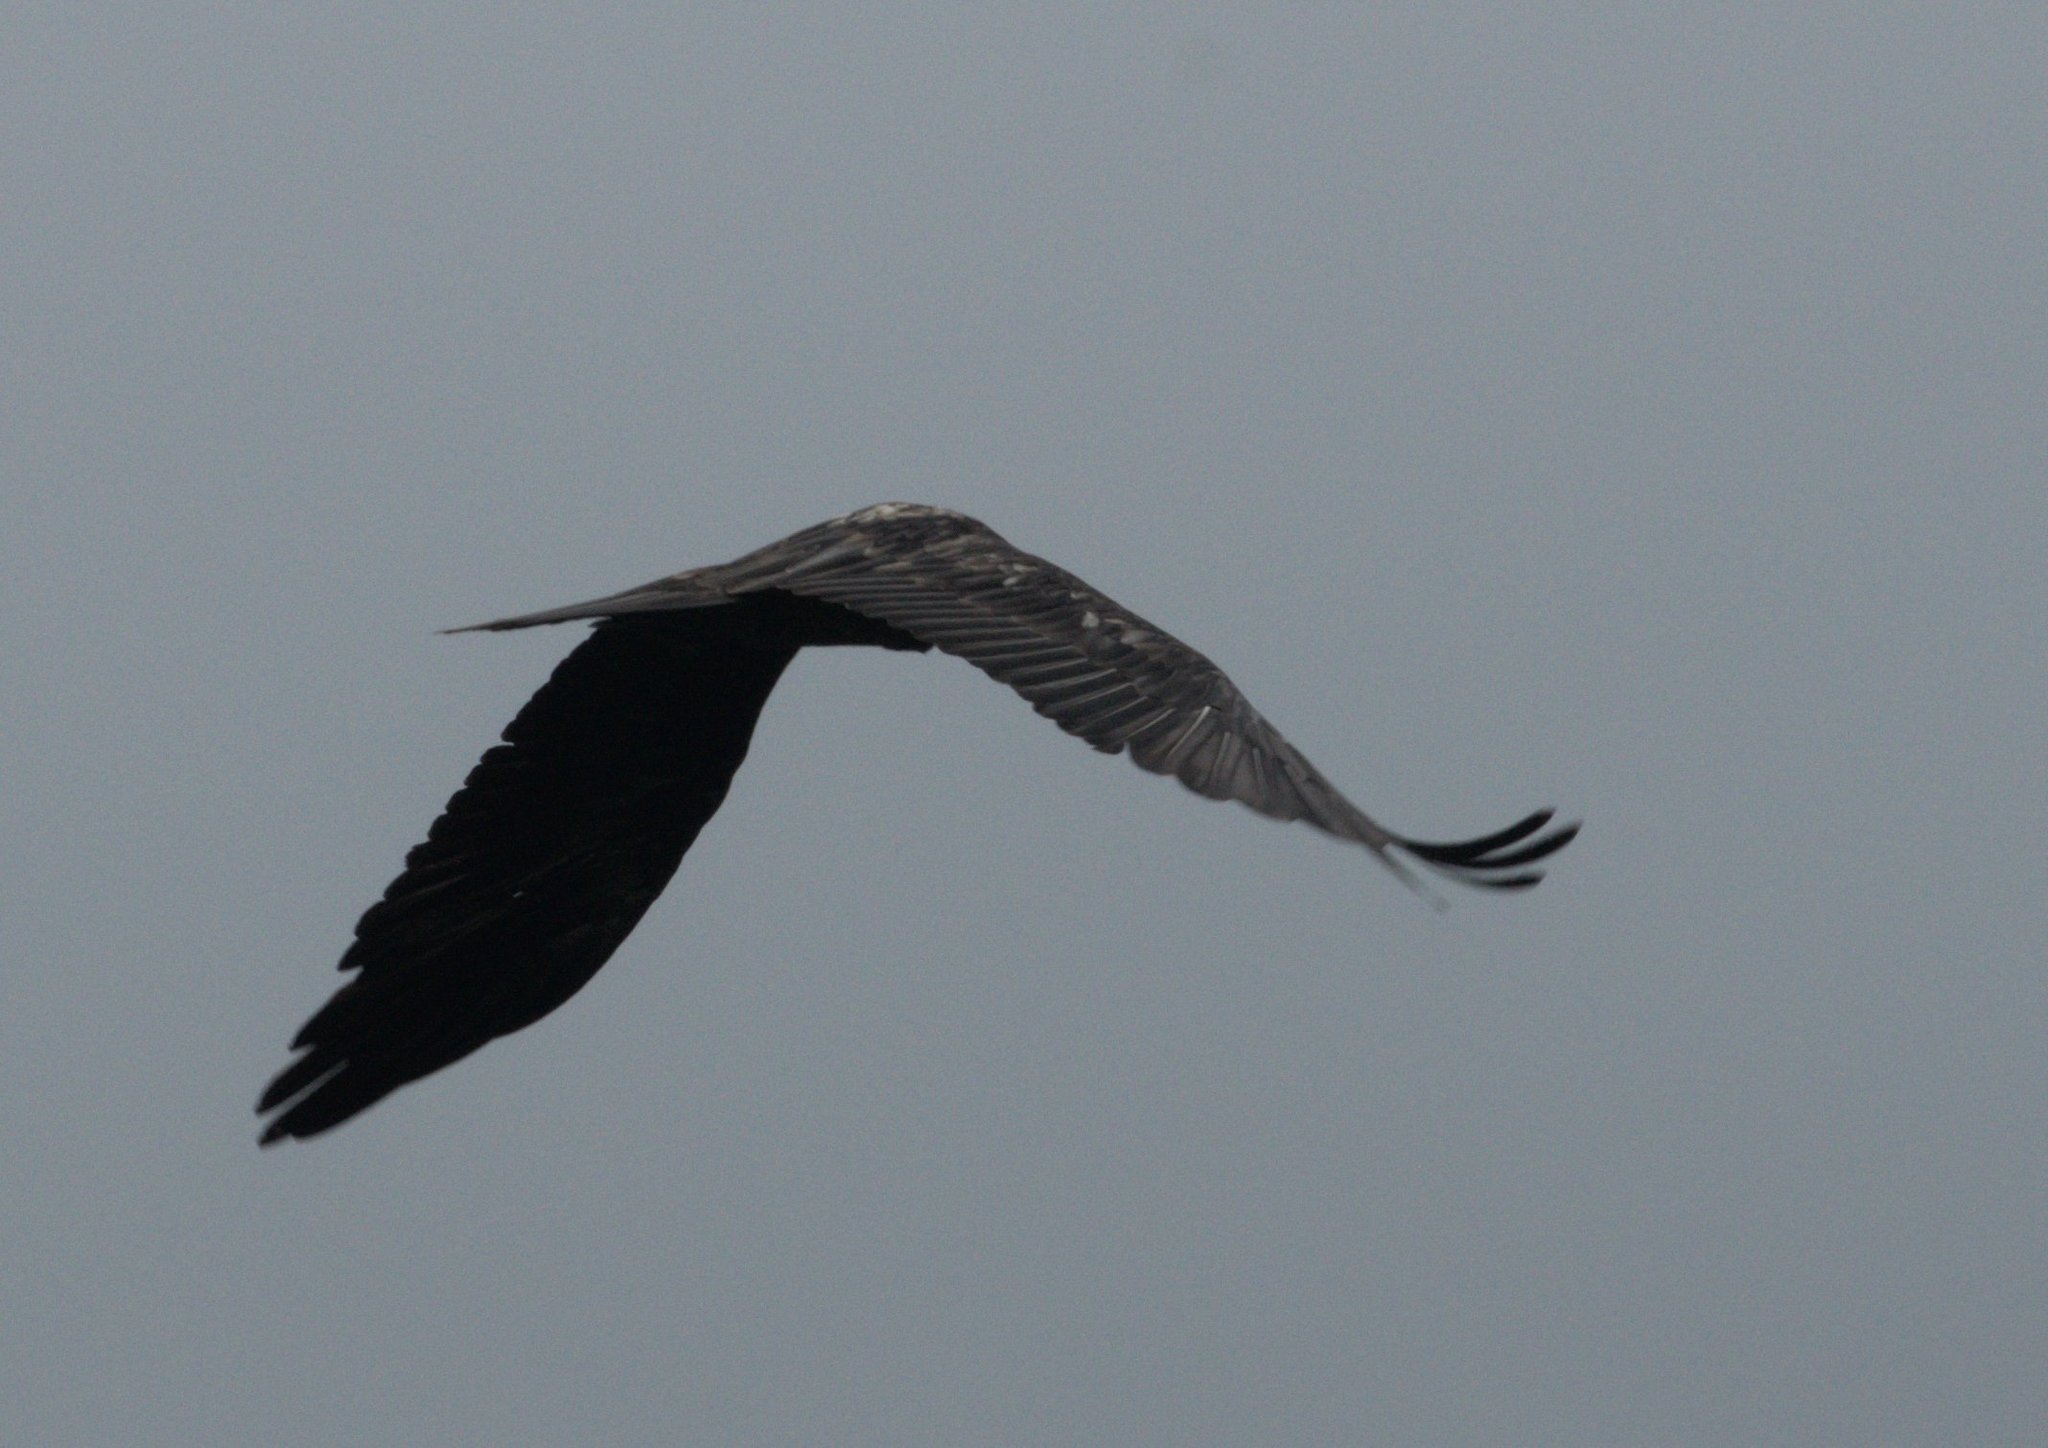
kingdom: Animalia
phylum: Chordata
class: Aves
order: Accipitriformes
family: Accipitridae
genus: Gypaetus
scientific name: Gypaetus barbatus
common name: Bearded vulture
